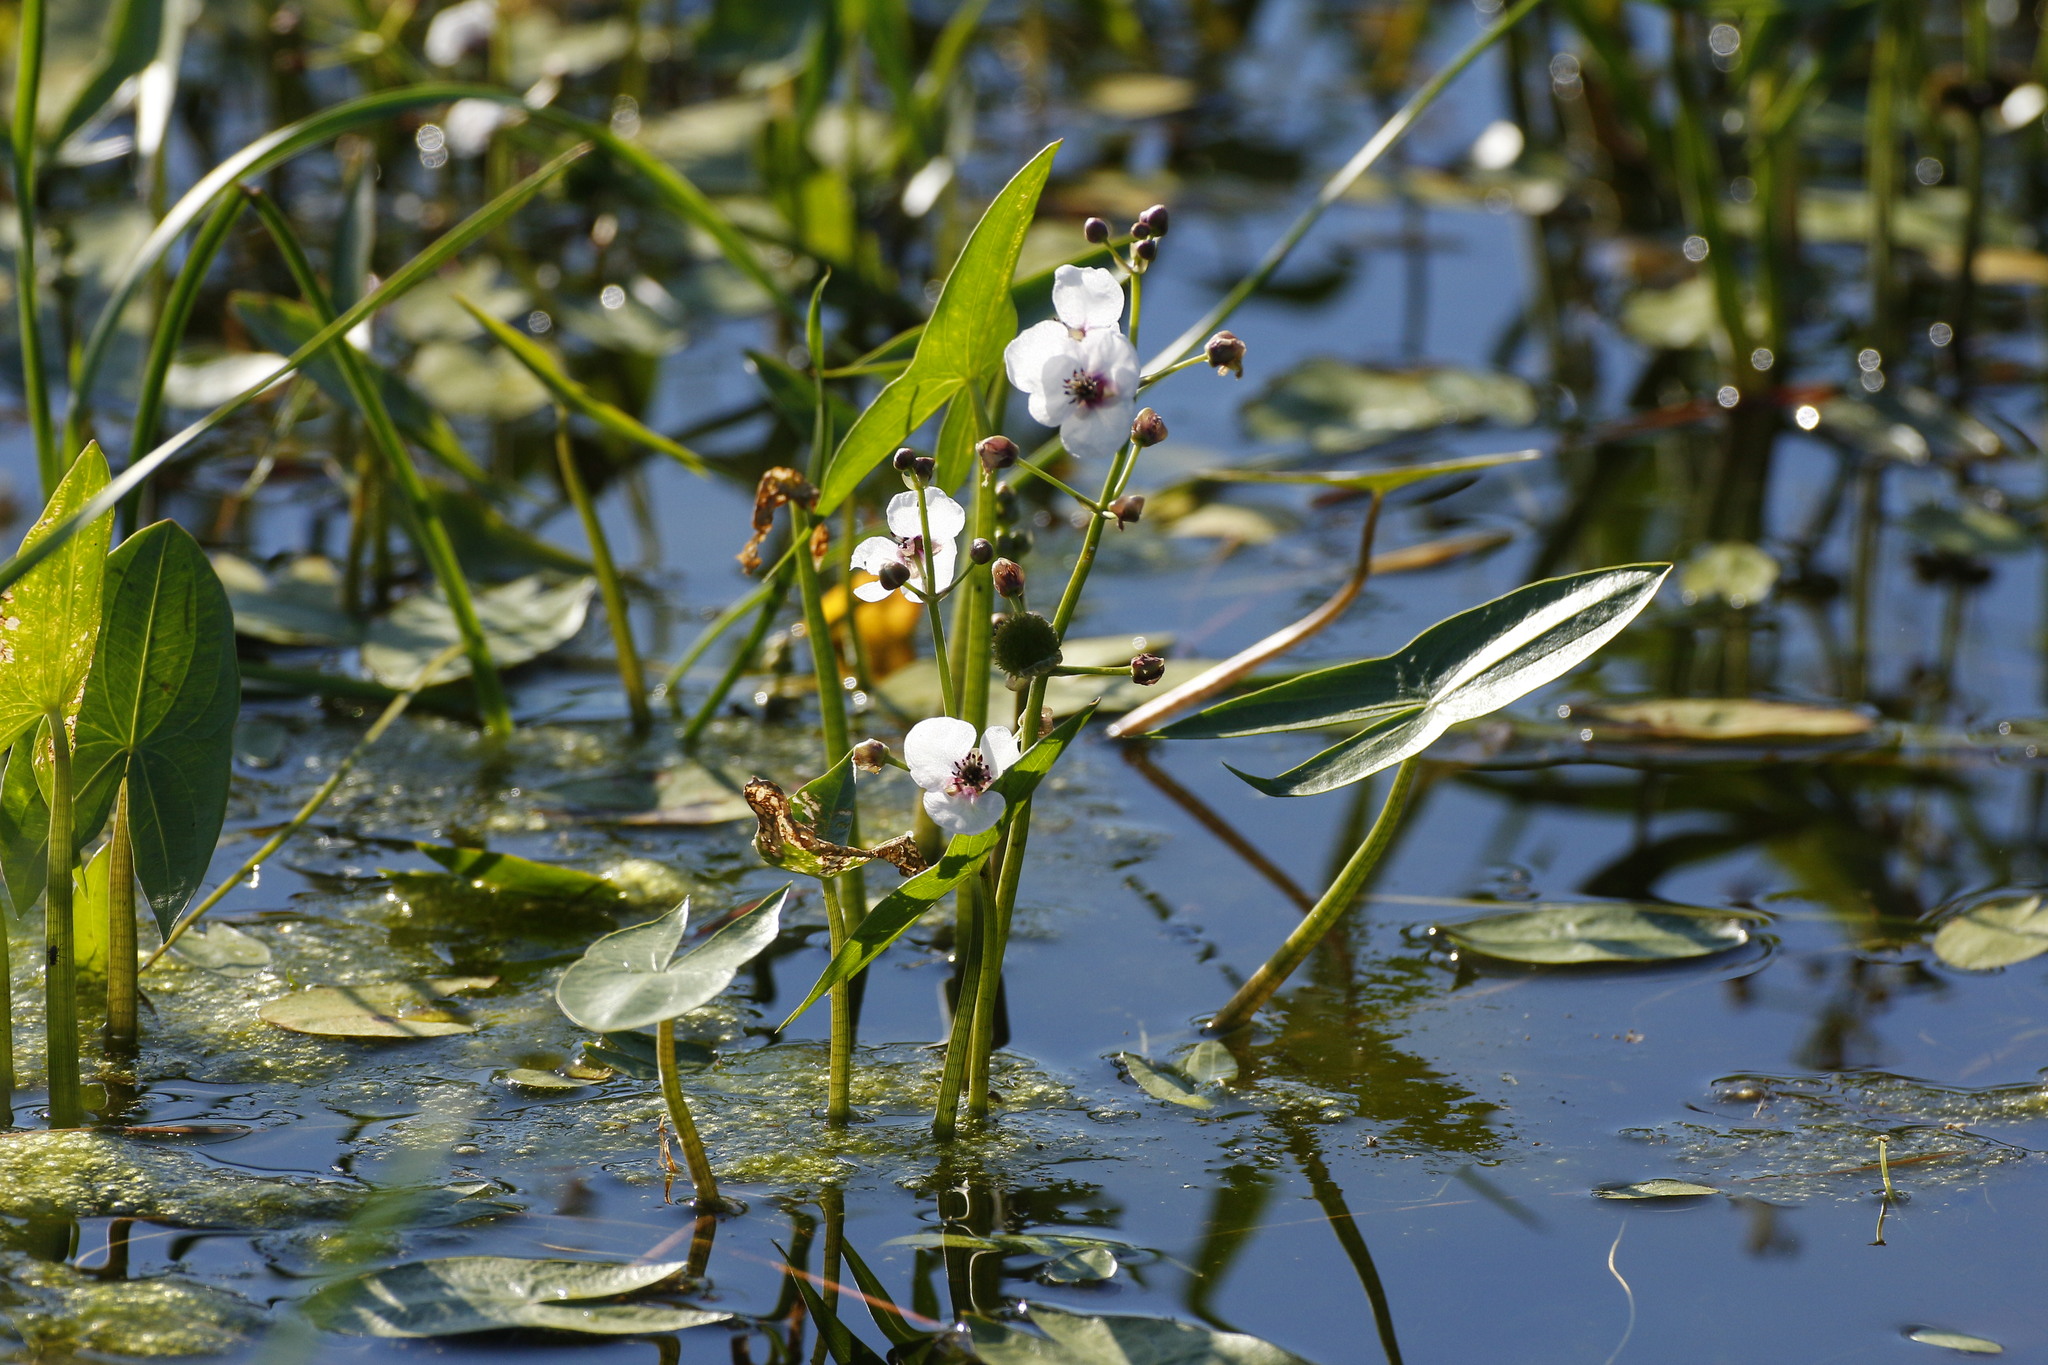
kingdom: Plantae
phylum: Tracheophyta
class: Liliopsida
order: Alismatales
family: Alismataceae
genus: Sagittaria
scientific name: Sagittaria sagittifolia
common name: Arrowhead
